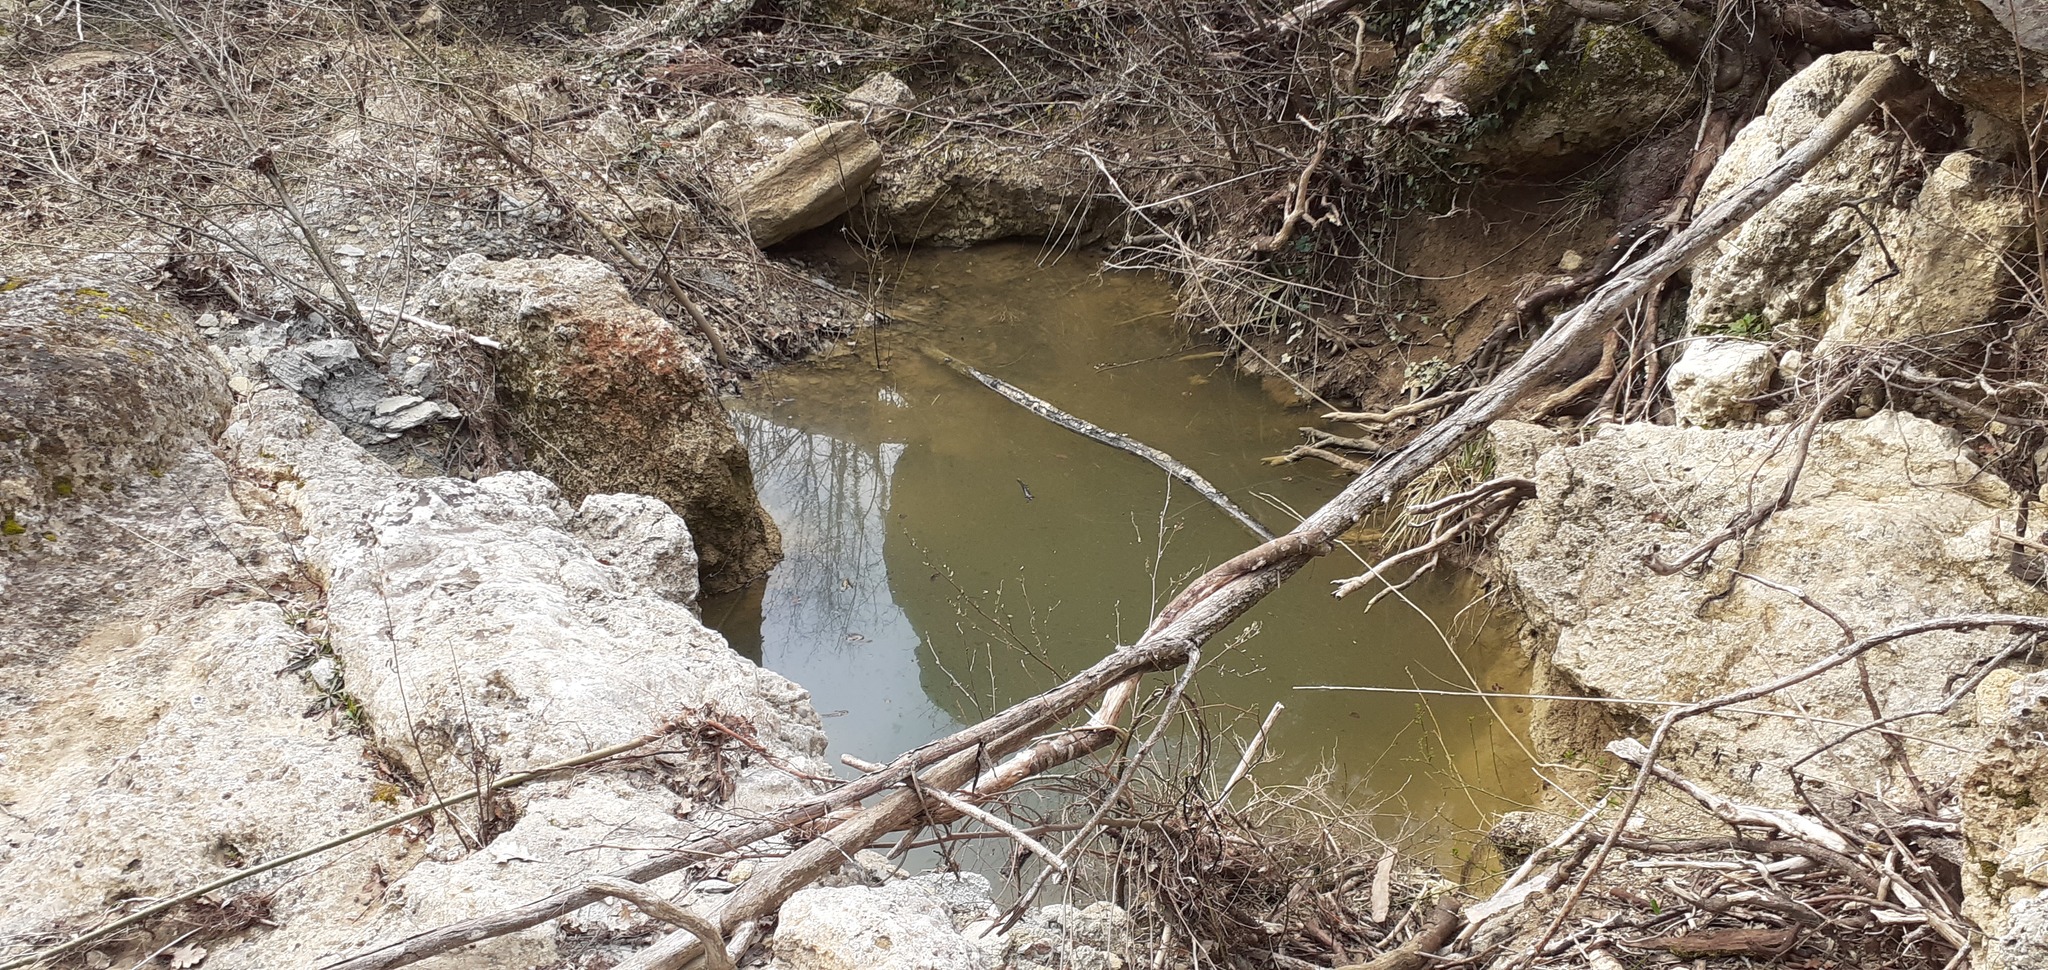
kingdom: Animalia
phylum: Chordata
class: Amphibia
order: Anura
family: Ranidae
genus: Rana
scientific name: Rana dalmatina
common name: Agile frog
